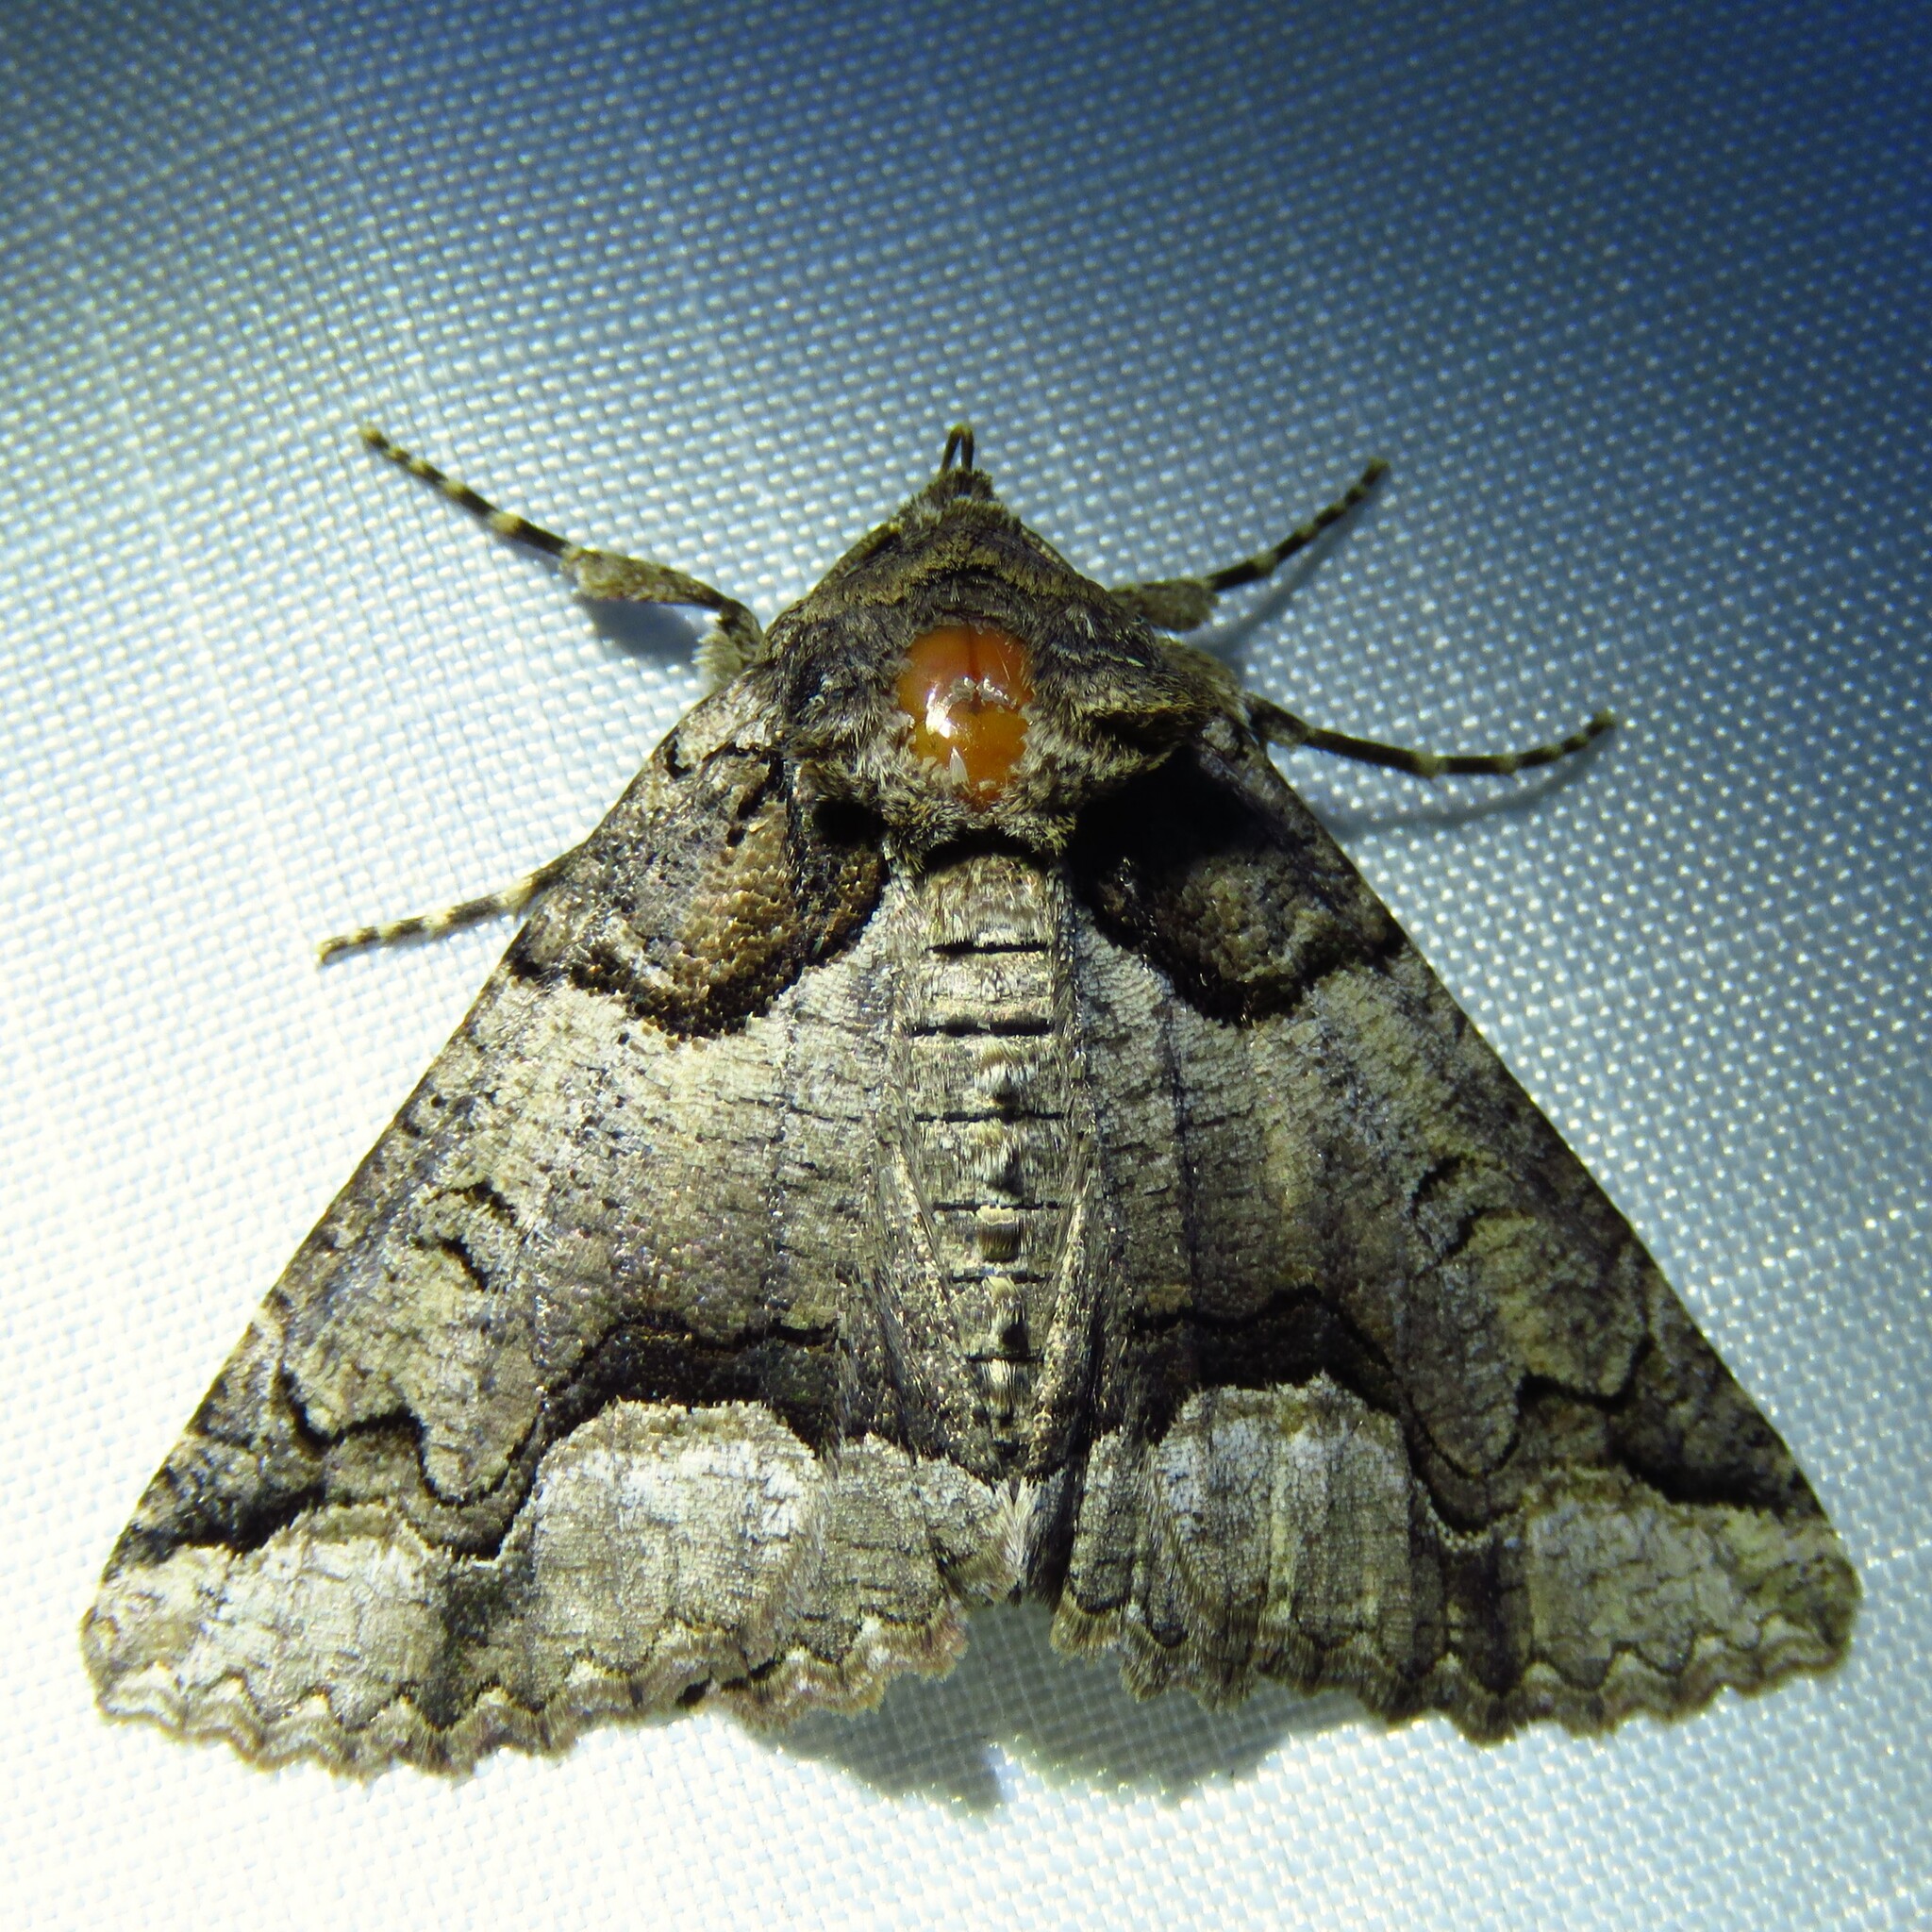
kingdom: Animalia
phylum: Arthropoda
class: Insecta
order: Lepidoptera
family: Erebidae
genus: Zale
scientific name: Zale calycanthata
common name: Double-banded zale
